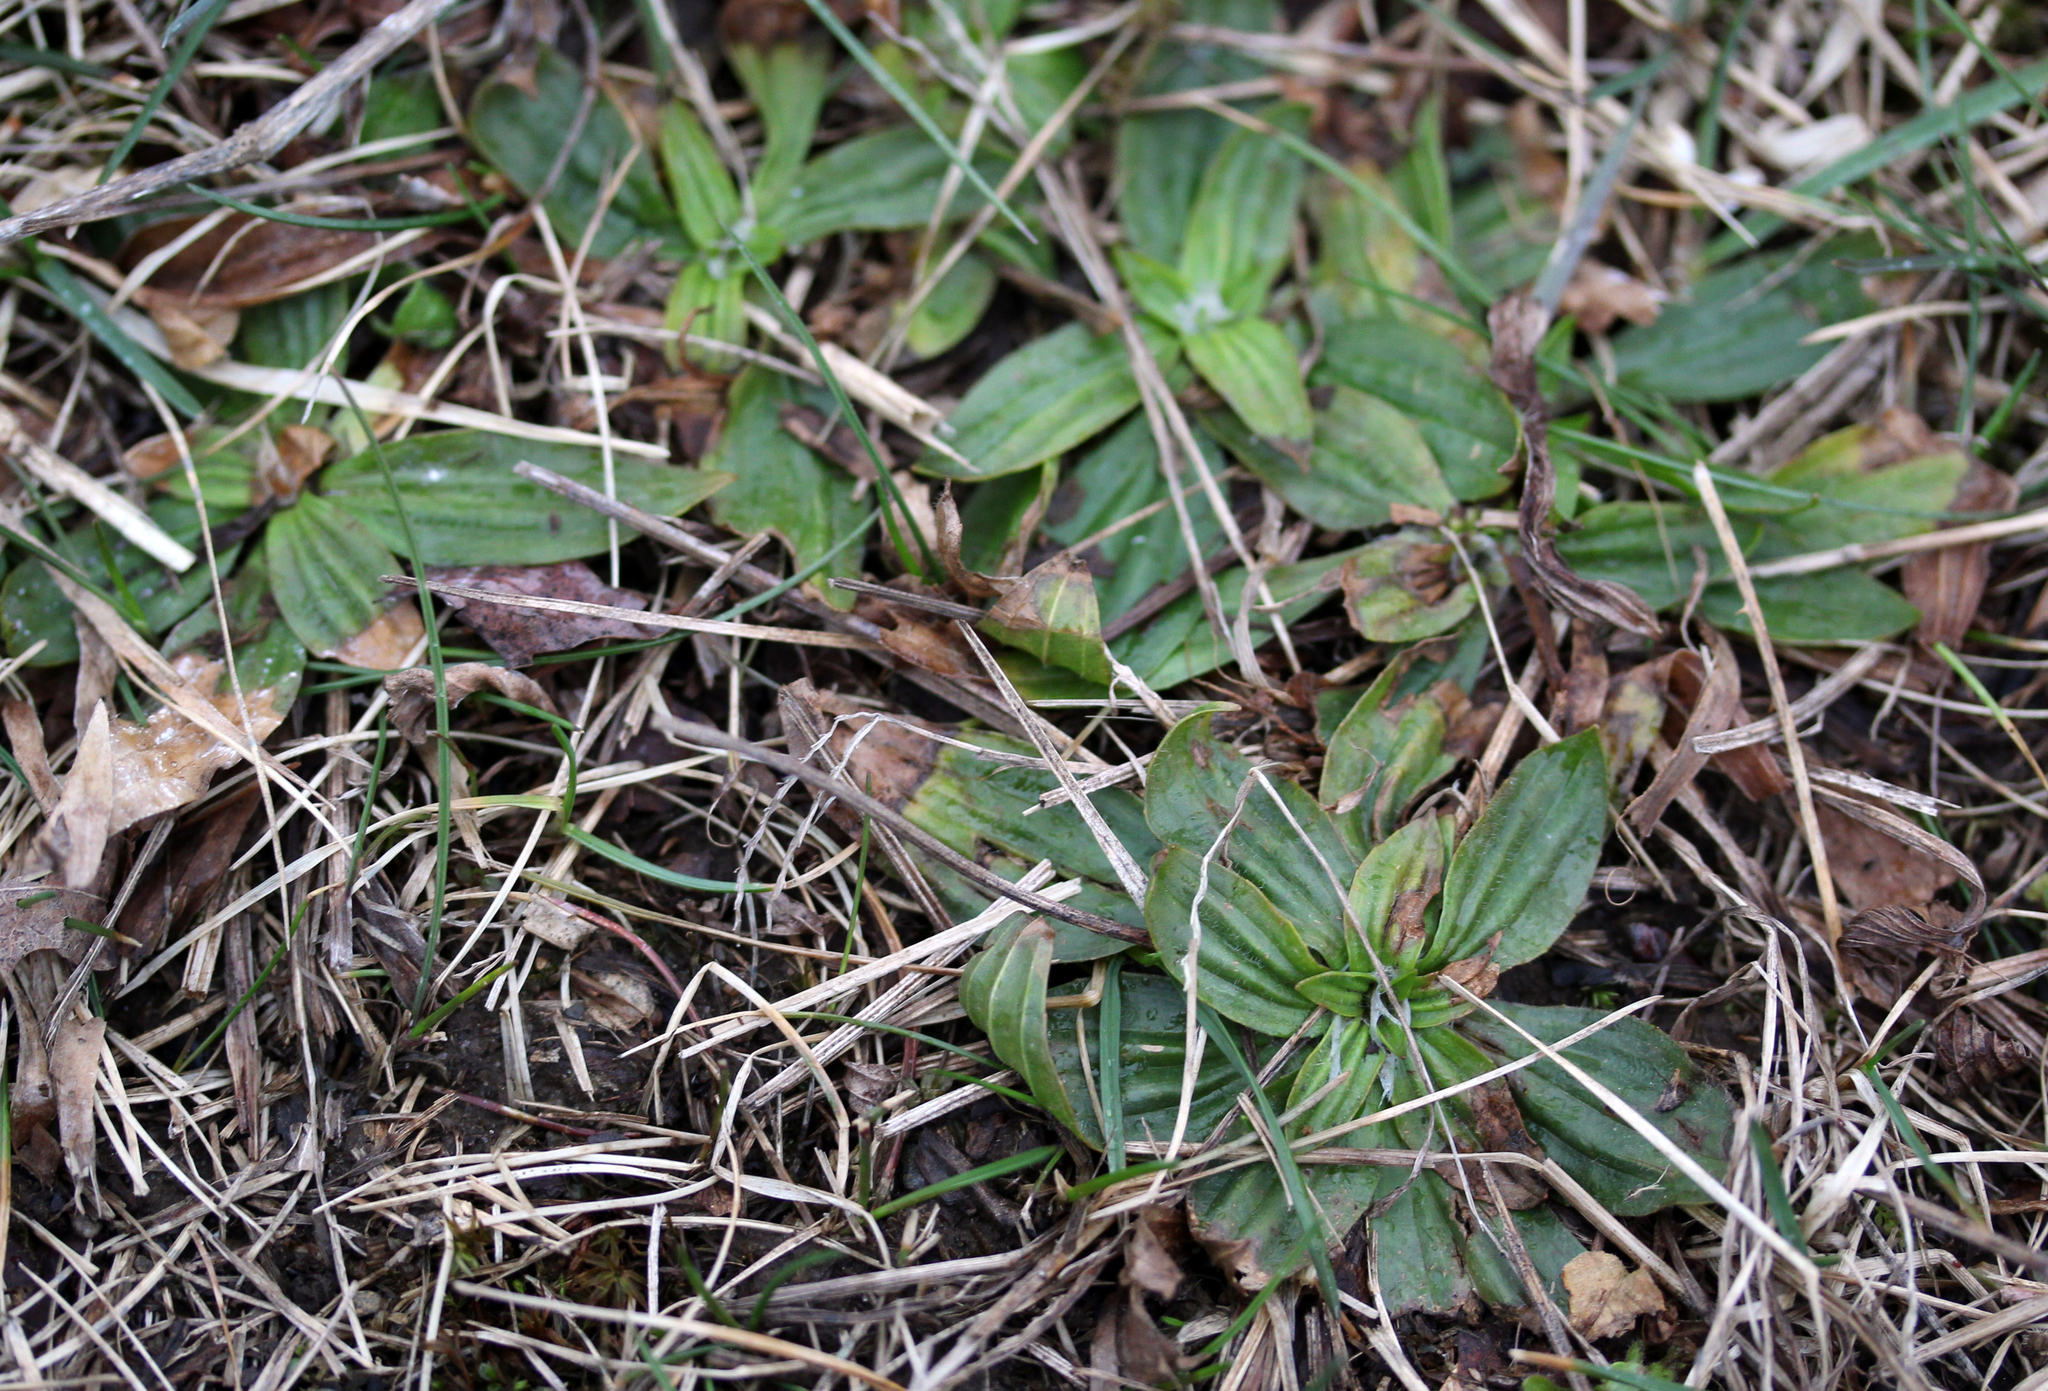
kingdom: Plantae
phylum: Tracheophyta
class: Magnoliopsida
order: Lamiales
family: Plantaginaceae
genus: Plantago
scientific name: Plantago lanceolata
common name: Ribwort plantain
